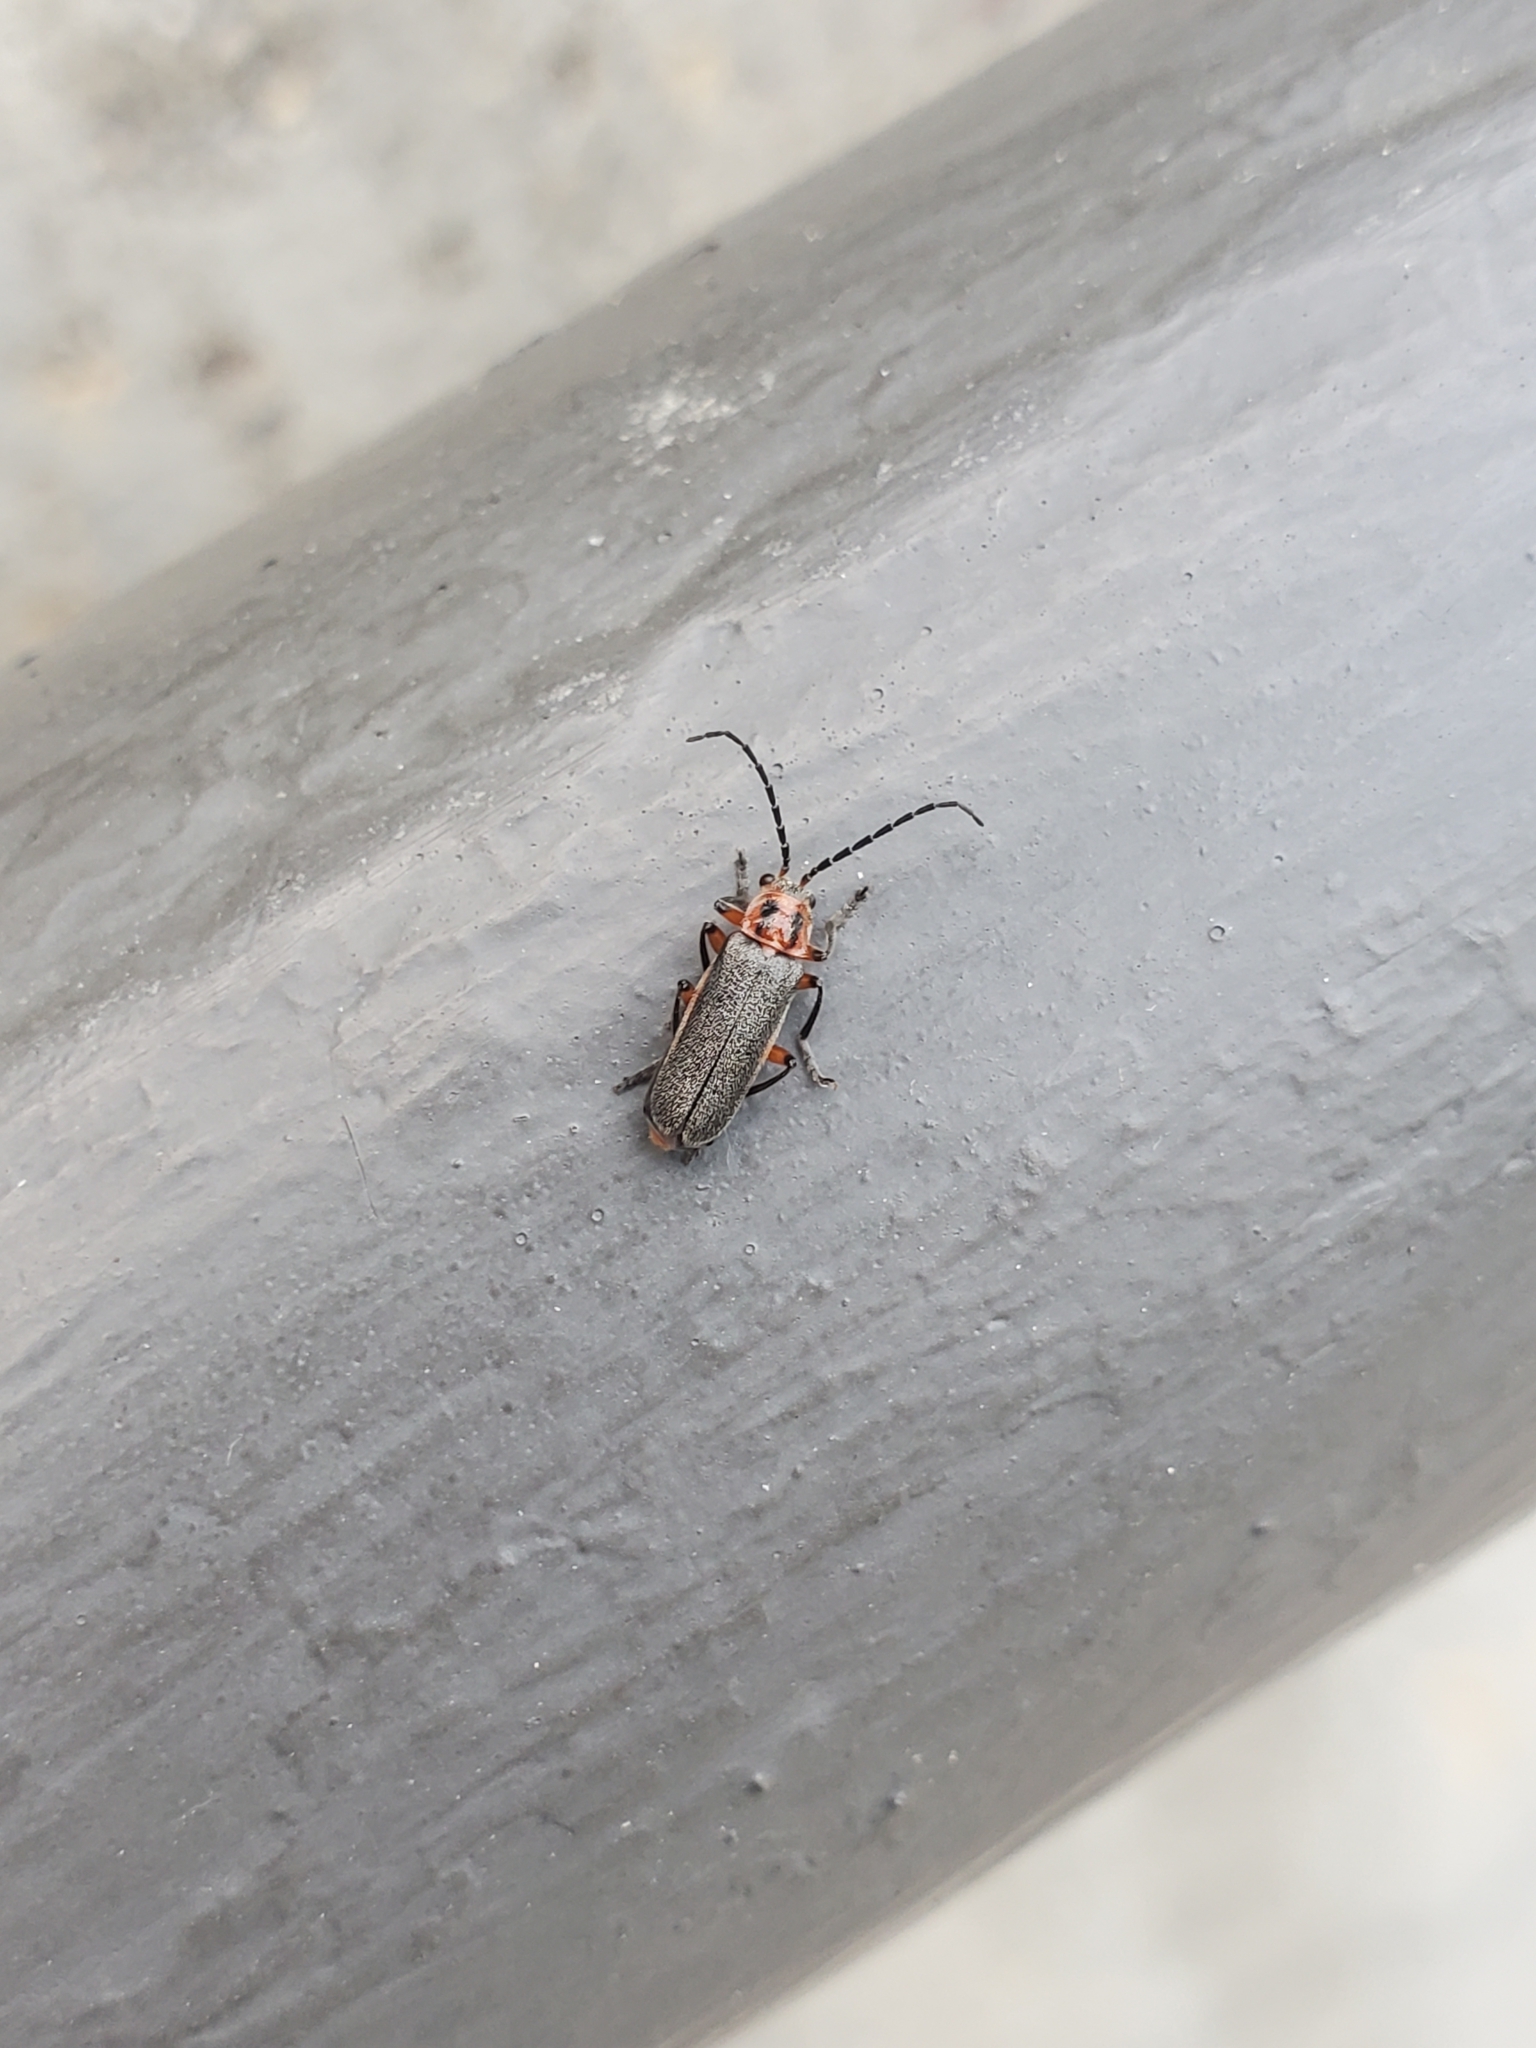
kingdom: Animalia
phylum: Arthropoda
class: Insecta
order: Coleoptera
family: Cantharidae
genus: Atalantycha
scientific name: Atalantycha bilineata
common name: Two-lined leatherwing
